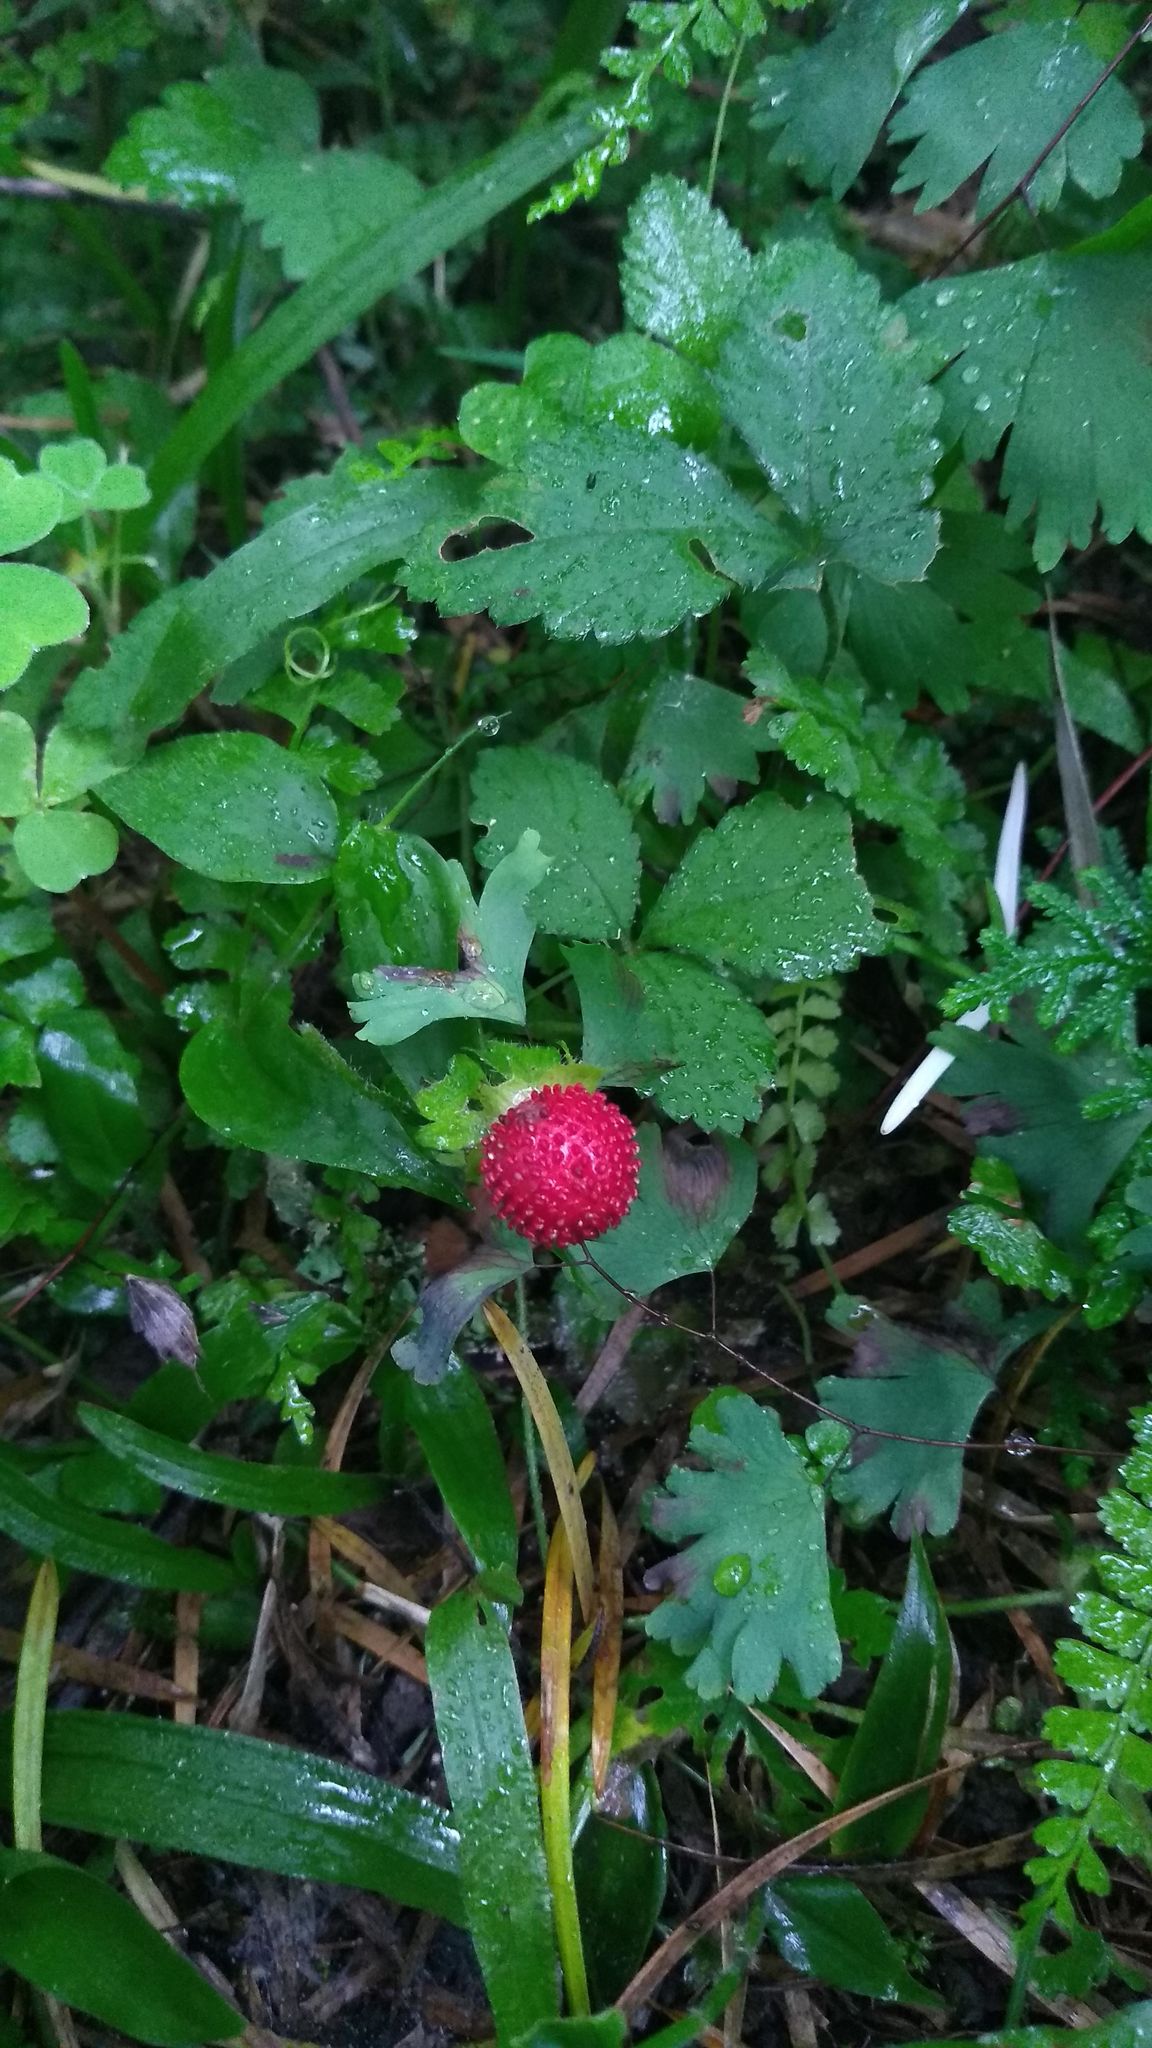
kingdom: Plantae
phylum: Tracheophyta
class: Magnoliopsida
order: Rosales
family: Rosaceae
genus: Potentilla
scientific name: Potentilla indica
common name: Yellow-flowered strawberry
